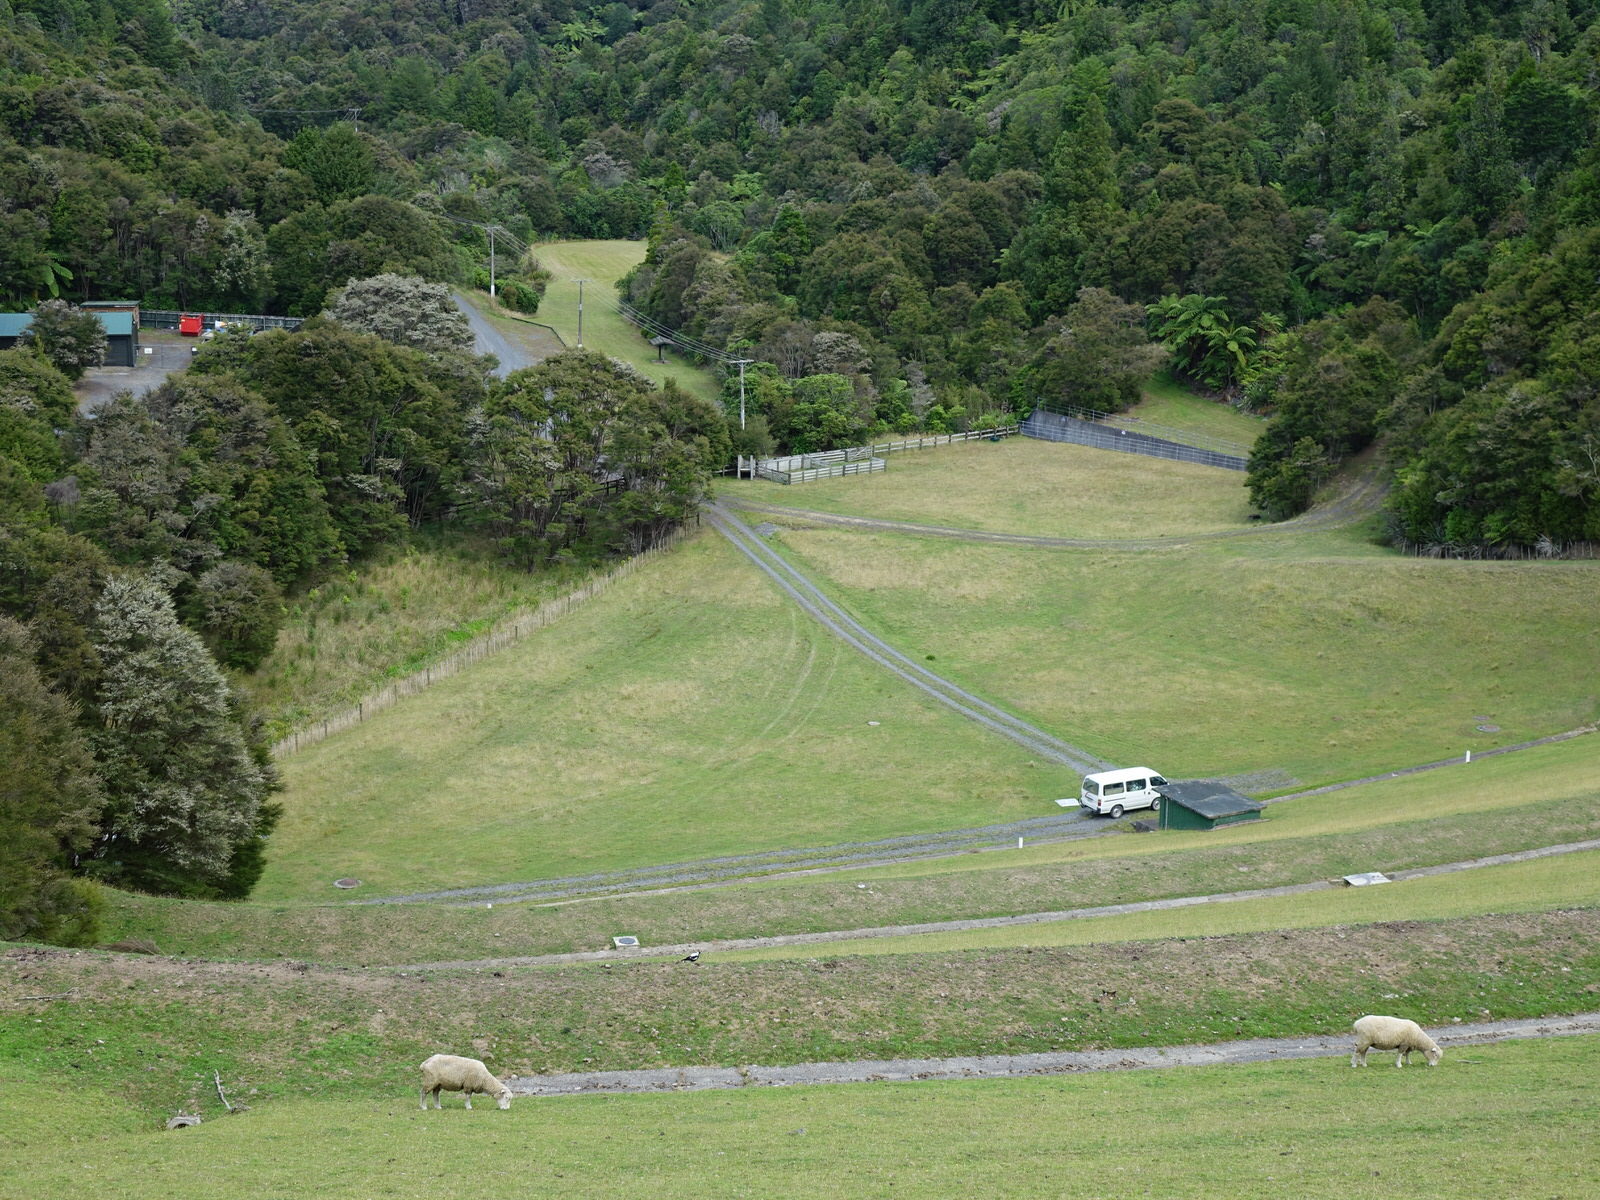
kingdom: Animalia
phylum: Chordata
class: Aves
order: Passeriformes
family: Cracticidae
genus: Gymnorhina
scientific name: Gymnorhina tibicen
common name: Australian magpie
